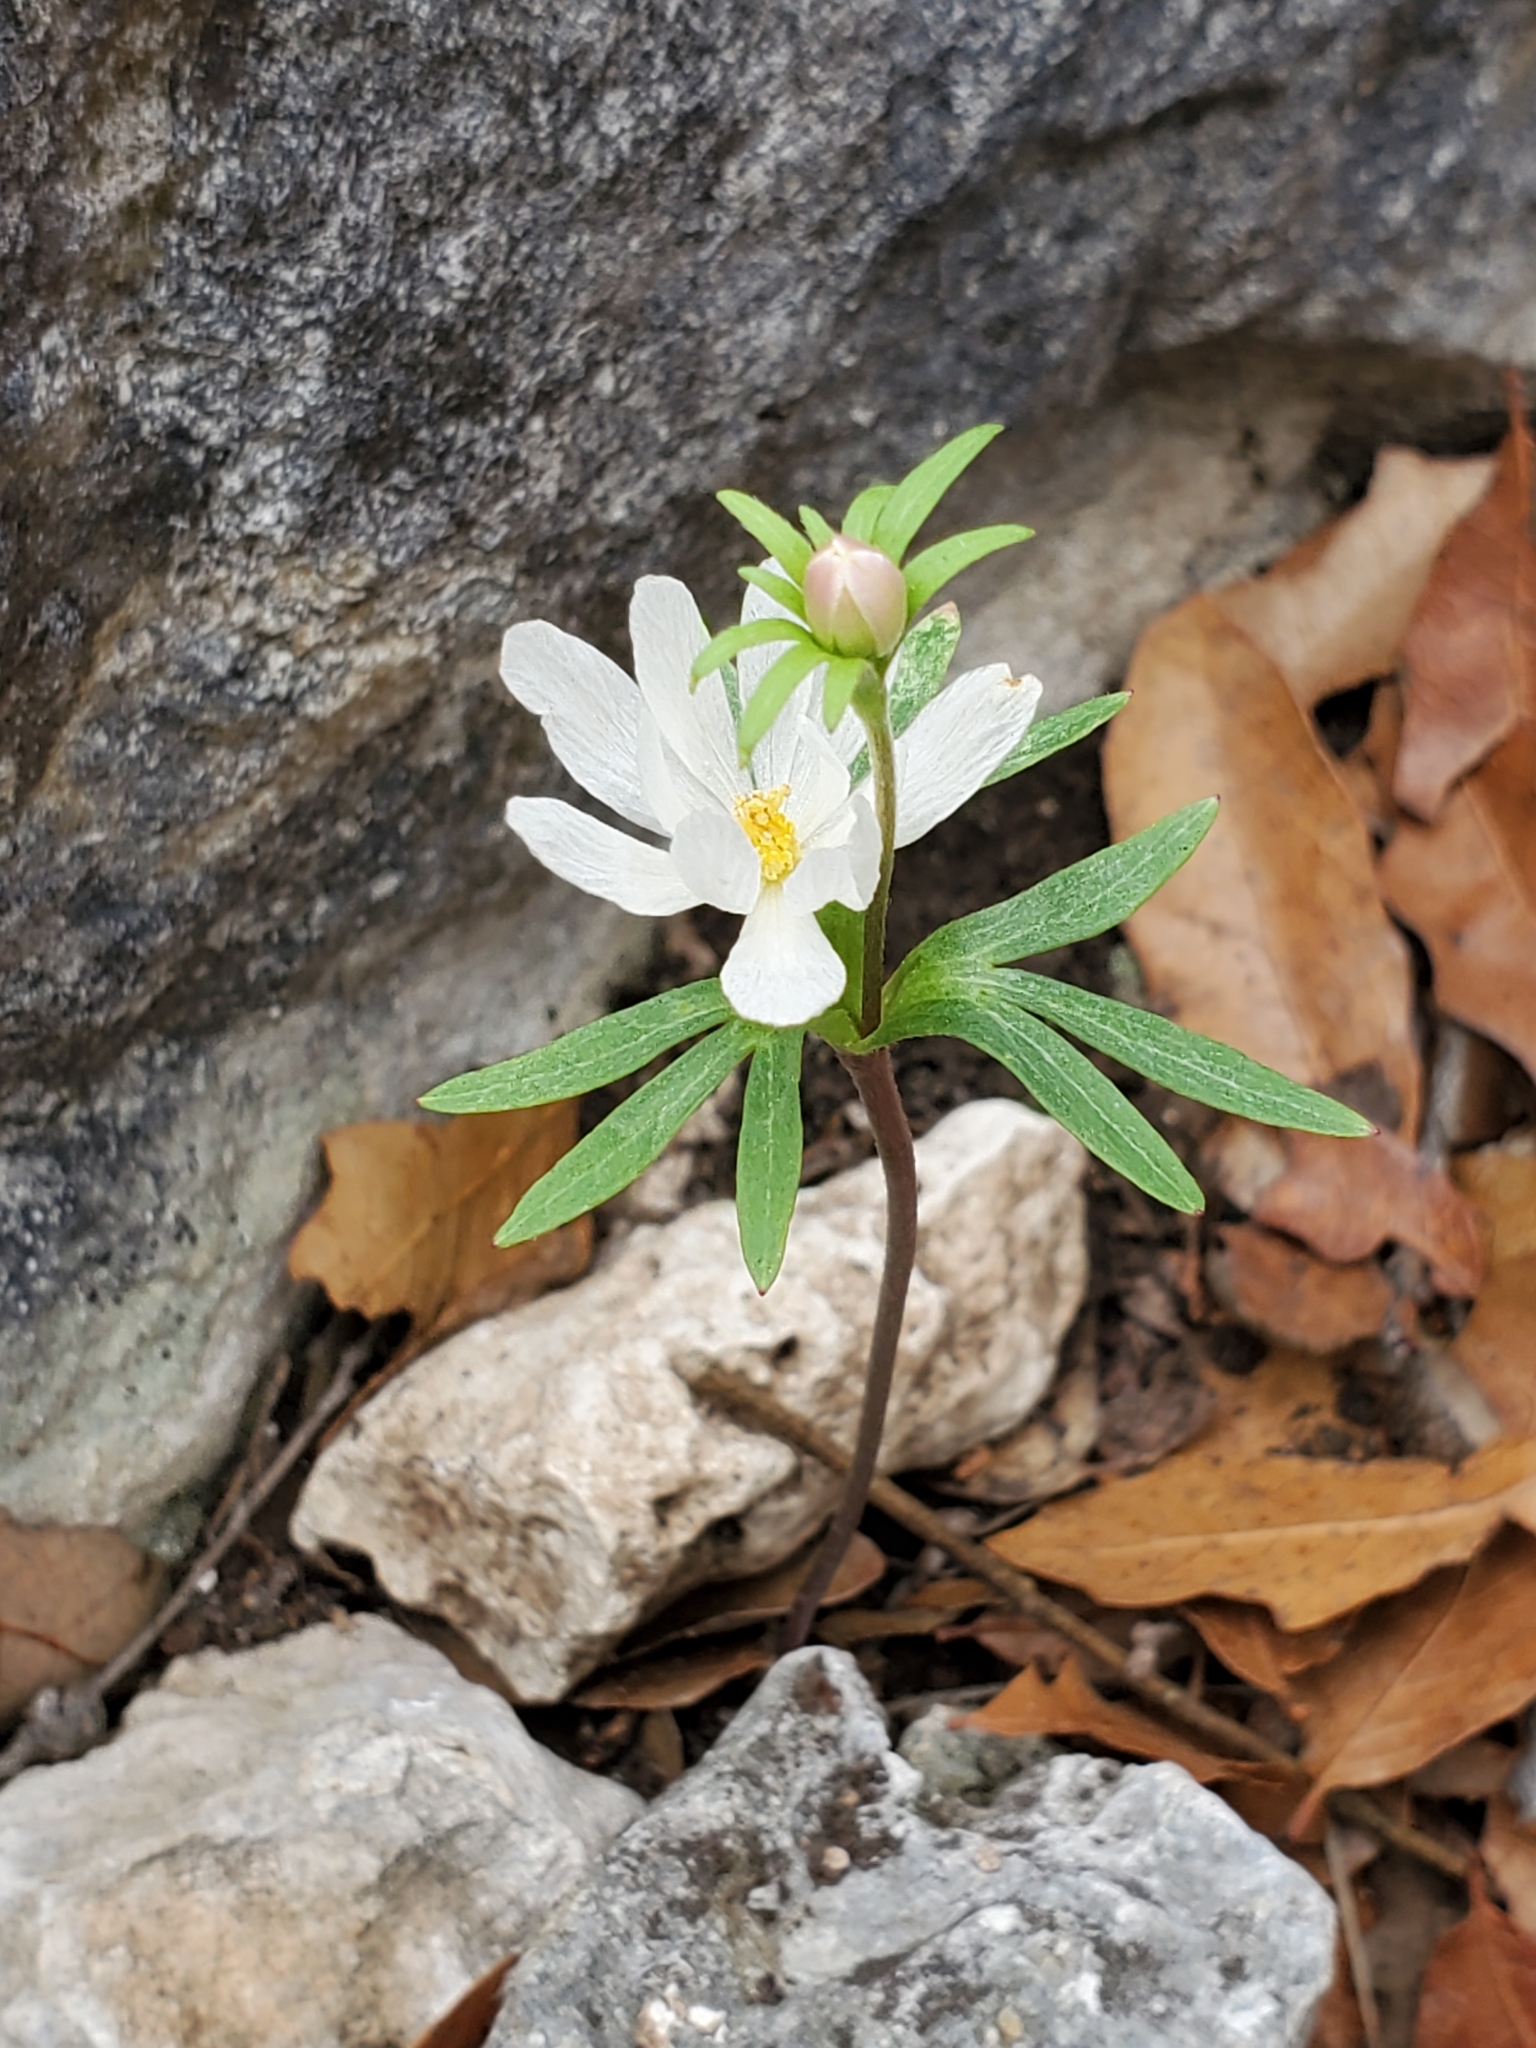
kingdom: Plantae
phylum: Tracheophyta
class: Magnoliopsida
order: Ranunculales
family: Ranunculaceae
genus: Anemone
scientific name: Anemone edwardsiana
